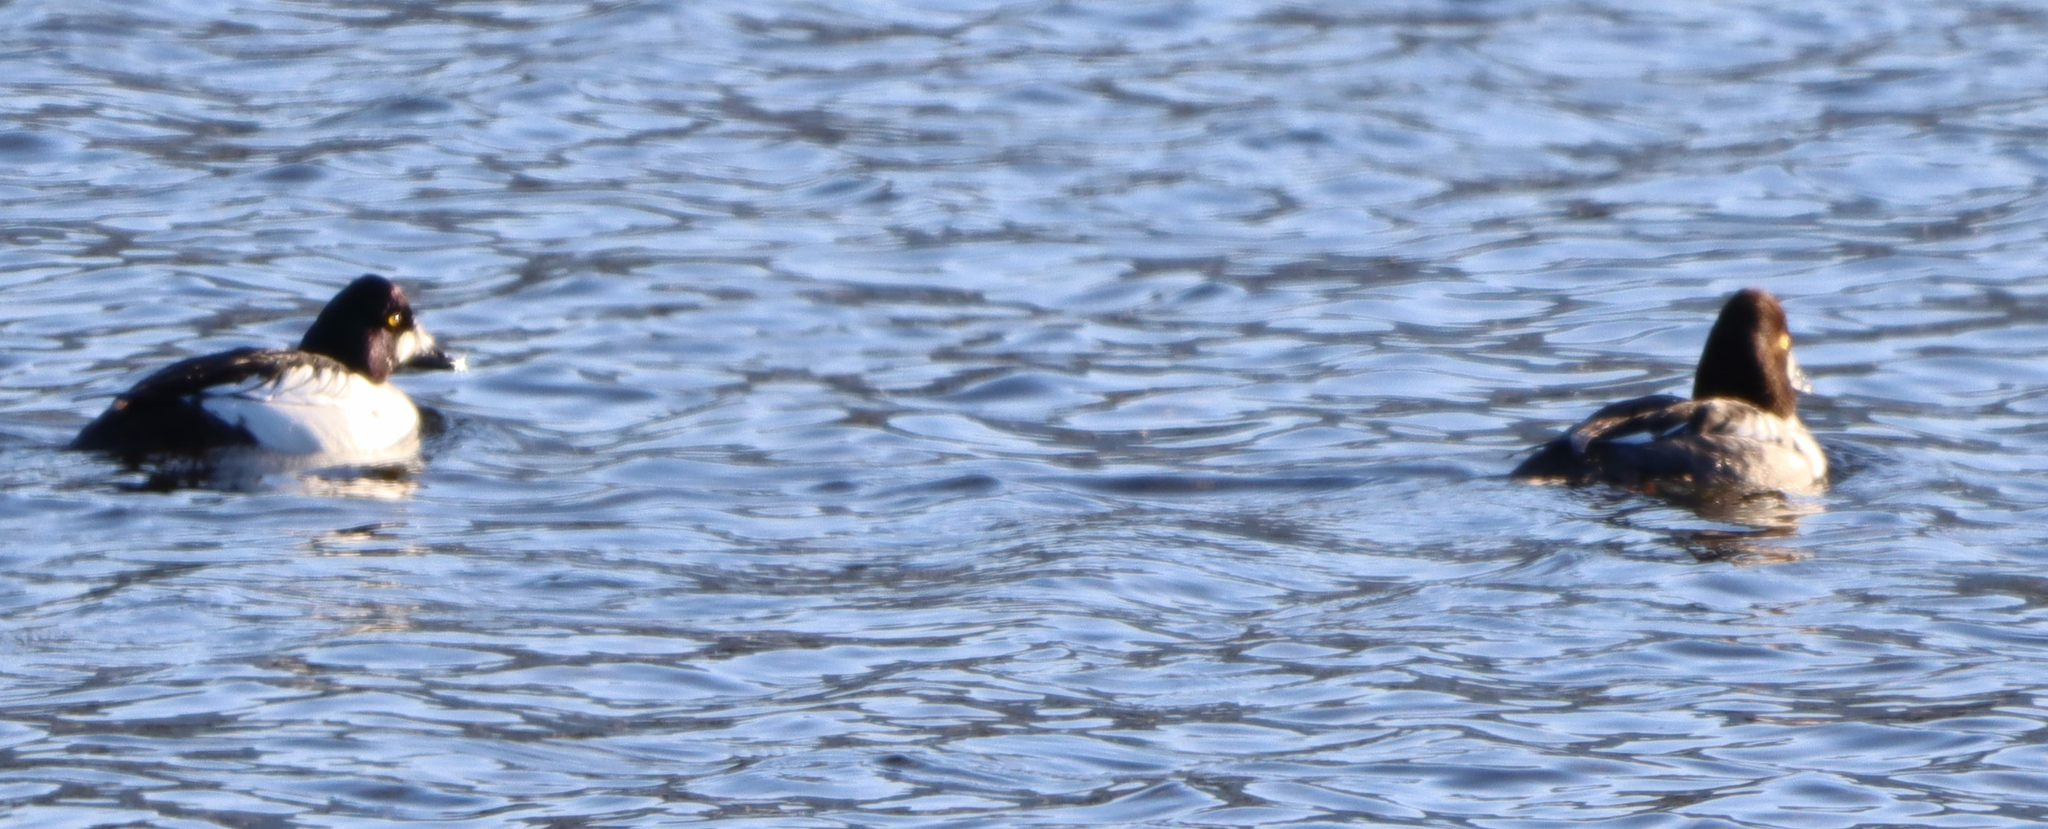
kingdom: Animalia
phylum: Chordata
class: Aves
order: Anseriformes
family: Anatidae
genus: Bucephala
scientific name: Bucephala clangula
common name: Common goldeneye
